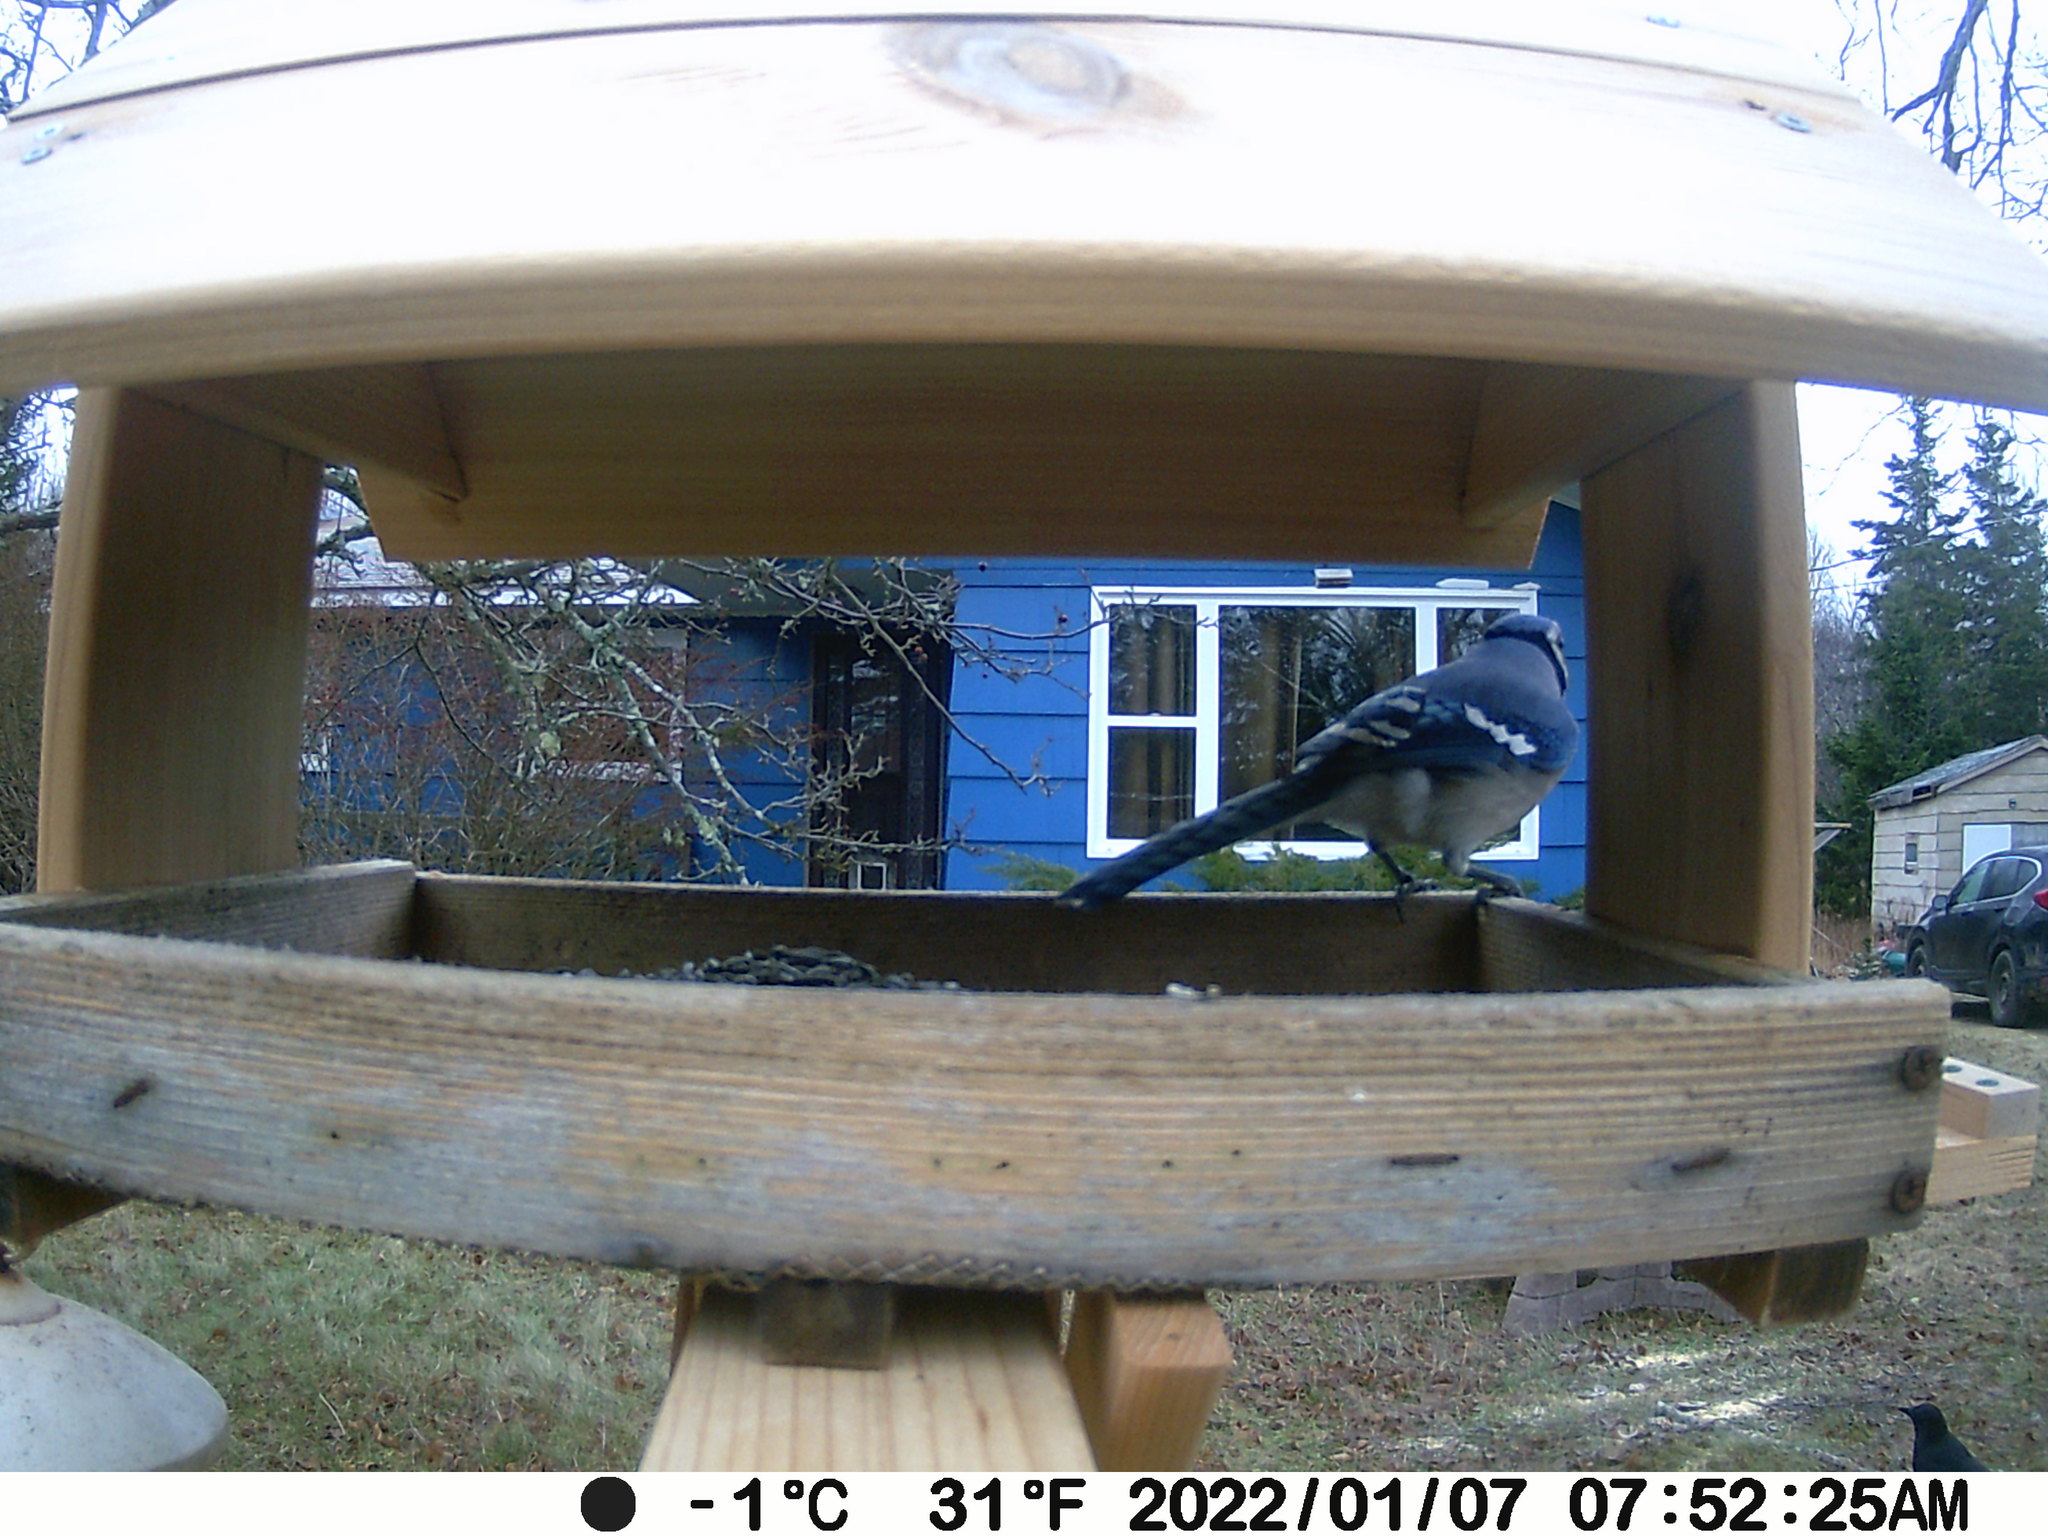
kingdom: Animalia
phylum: Chordata
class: Aves
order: Passeriformes
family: Corvidae
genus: Cyanocitta
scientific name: Cyanocitta cristata
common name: Blue jay
